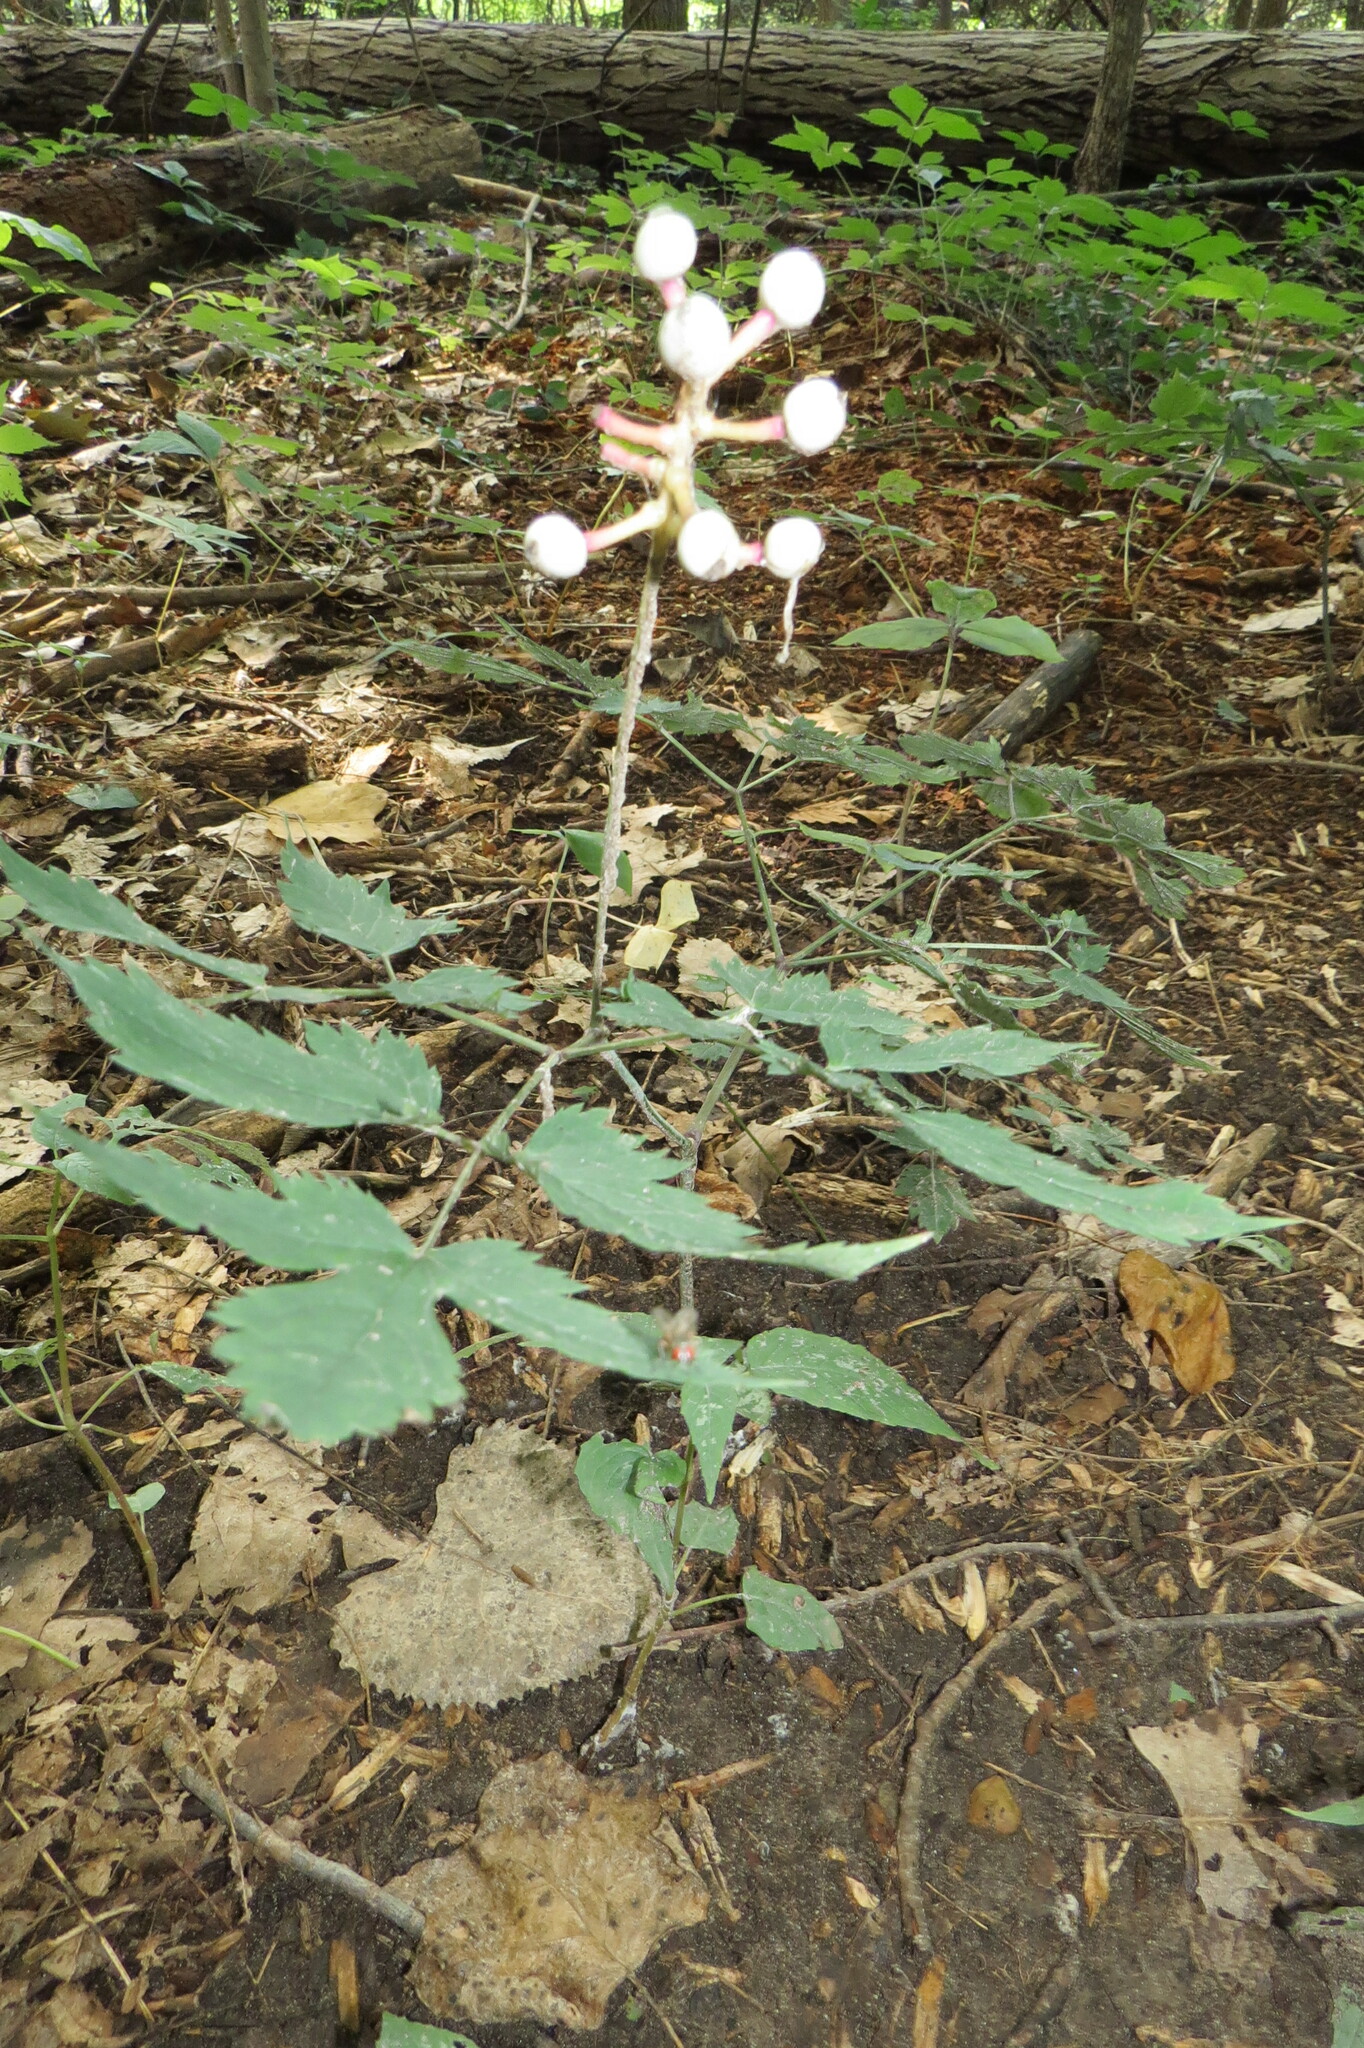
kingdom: Plantae
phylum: Tracheophyta
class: Magnoliopsida
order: Ranunculales
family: Ranunculaceae
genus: Actaea
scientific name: Actaea pachypoda
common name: Doll's-eyes
